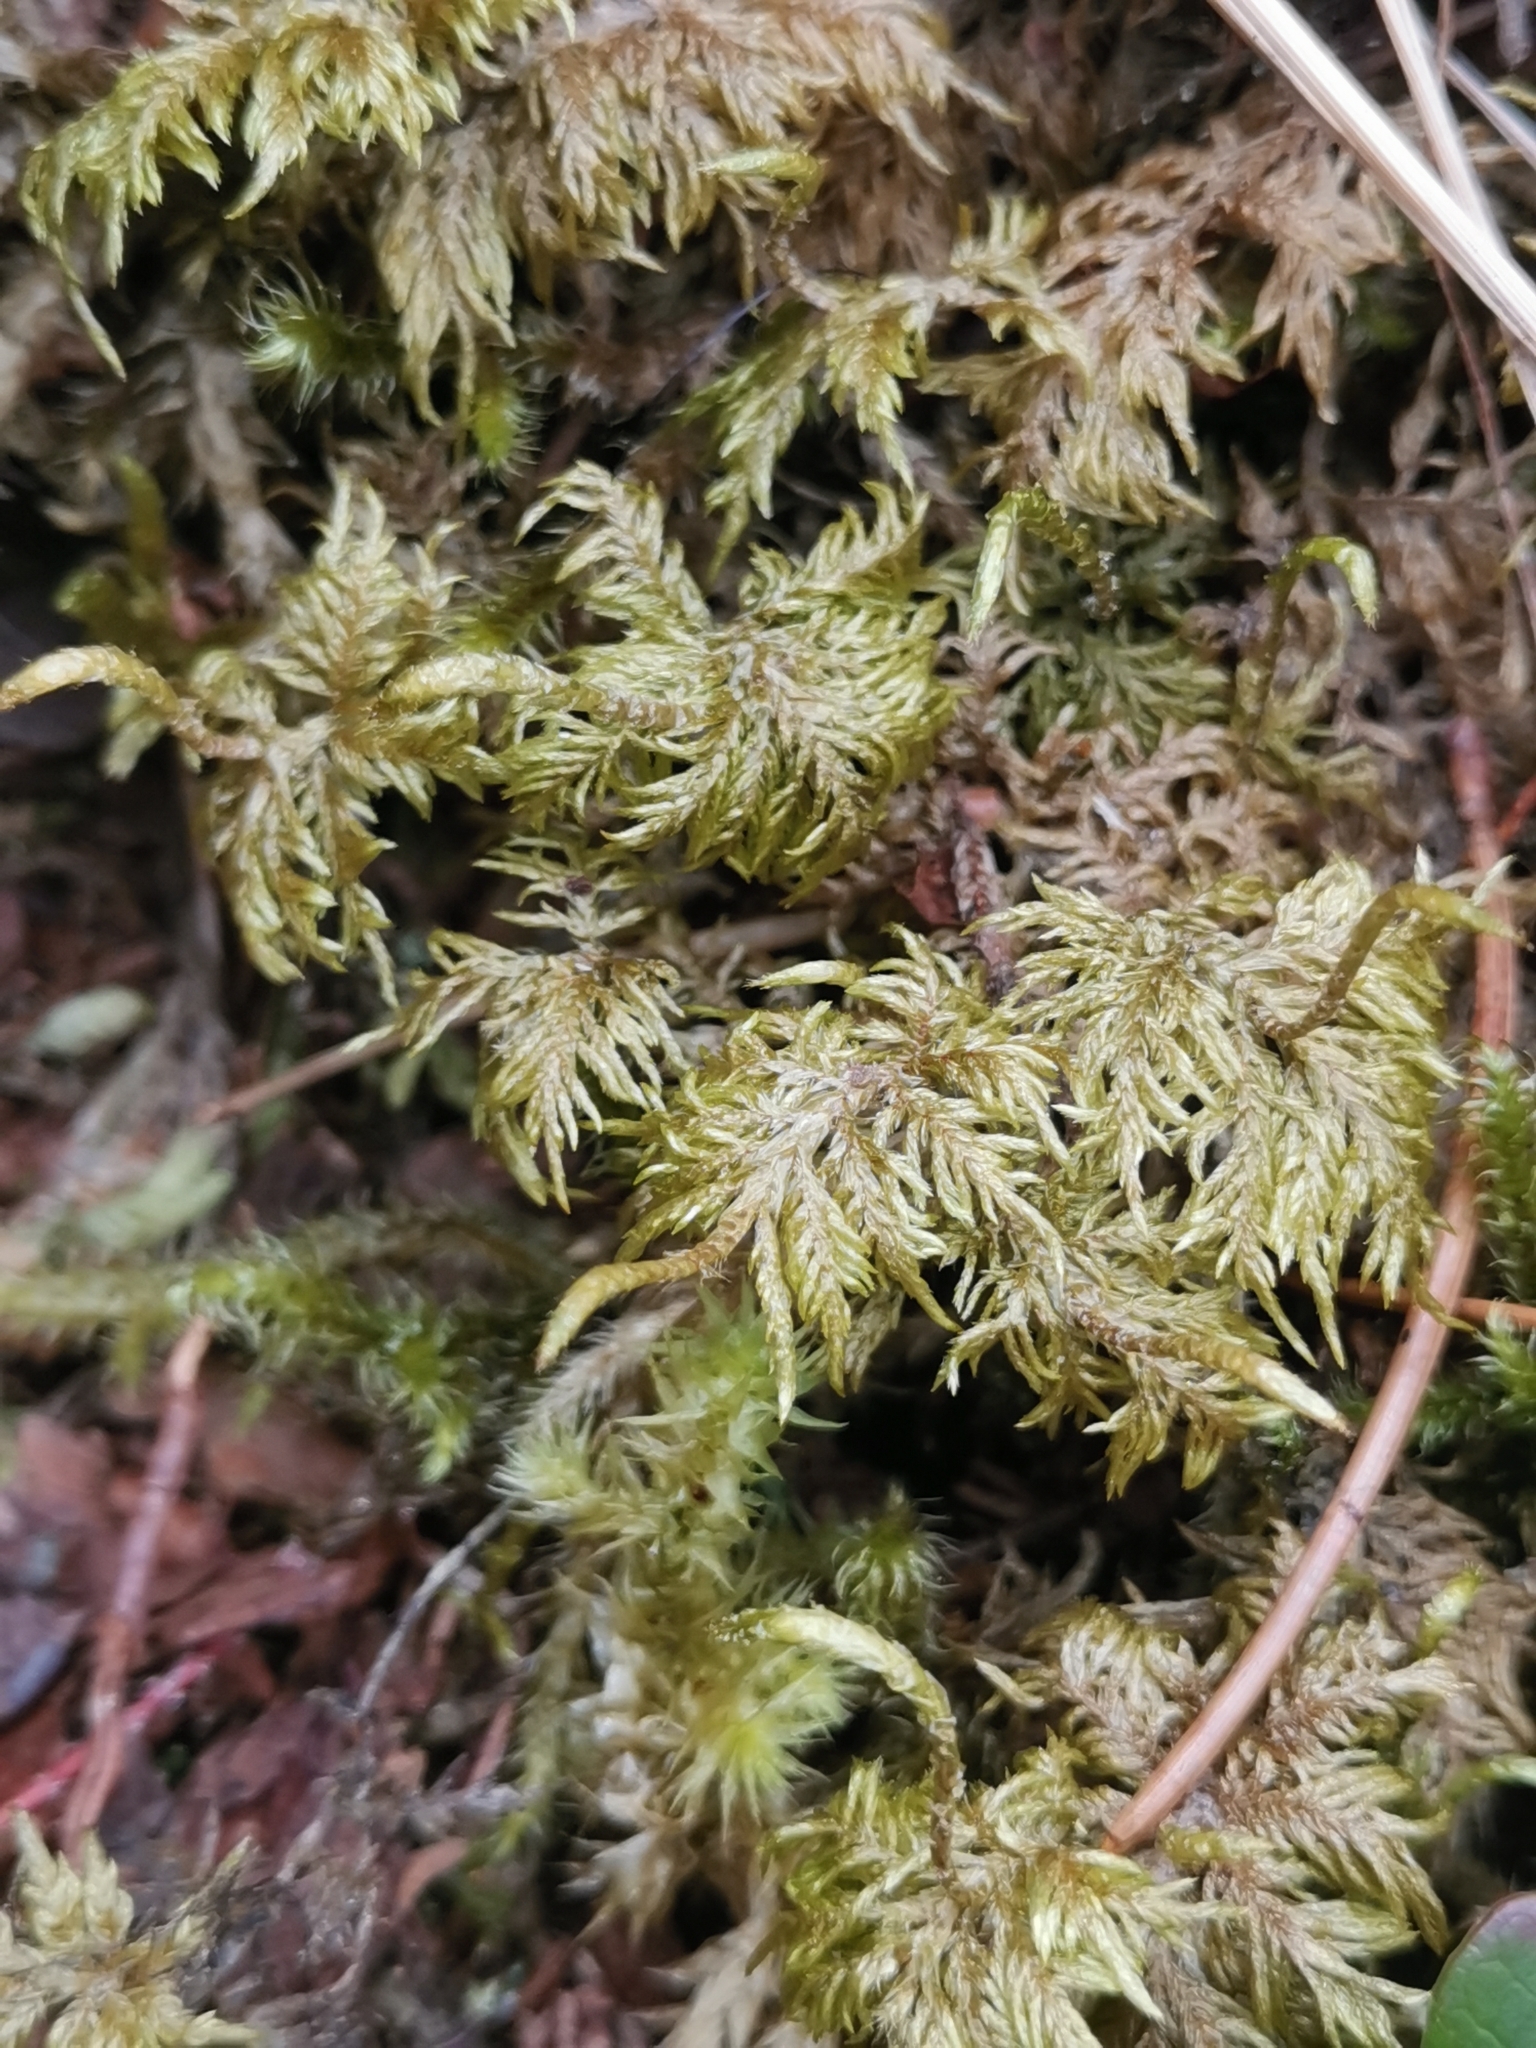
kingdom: Plantae
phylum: Bryophyta
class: Bryopsida
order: Hypnales
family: Hylocomiaceae
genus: Hylocomium
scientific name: Hylocomium splendens
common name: Stairstep moss
